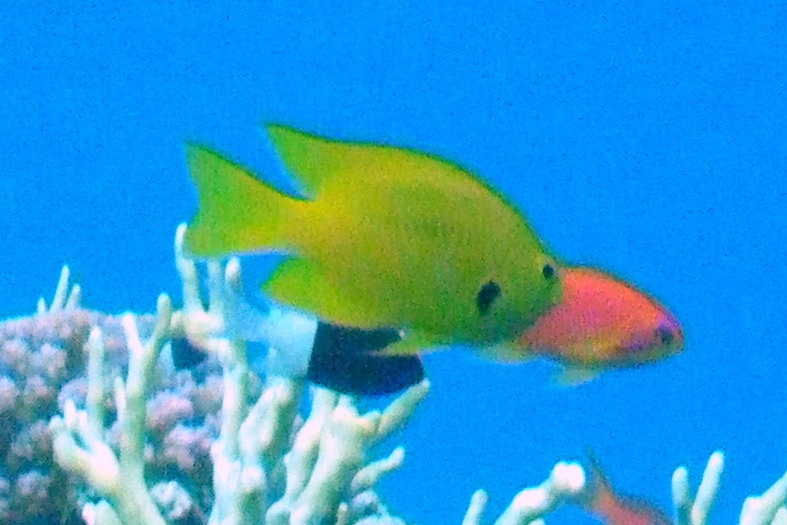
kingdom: Animalia
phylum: Chordata
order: Perciformes
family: Pomacentridae
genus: Pomacentrus
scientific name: Pomacentrus sulfureus
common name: Sulfur damsel
